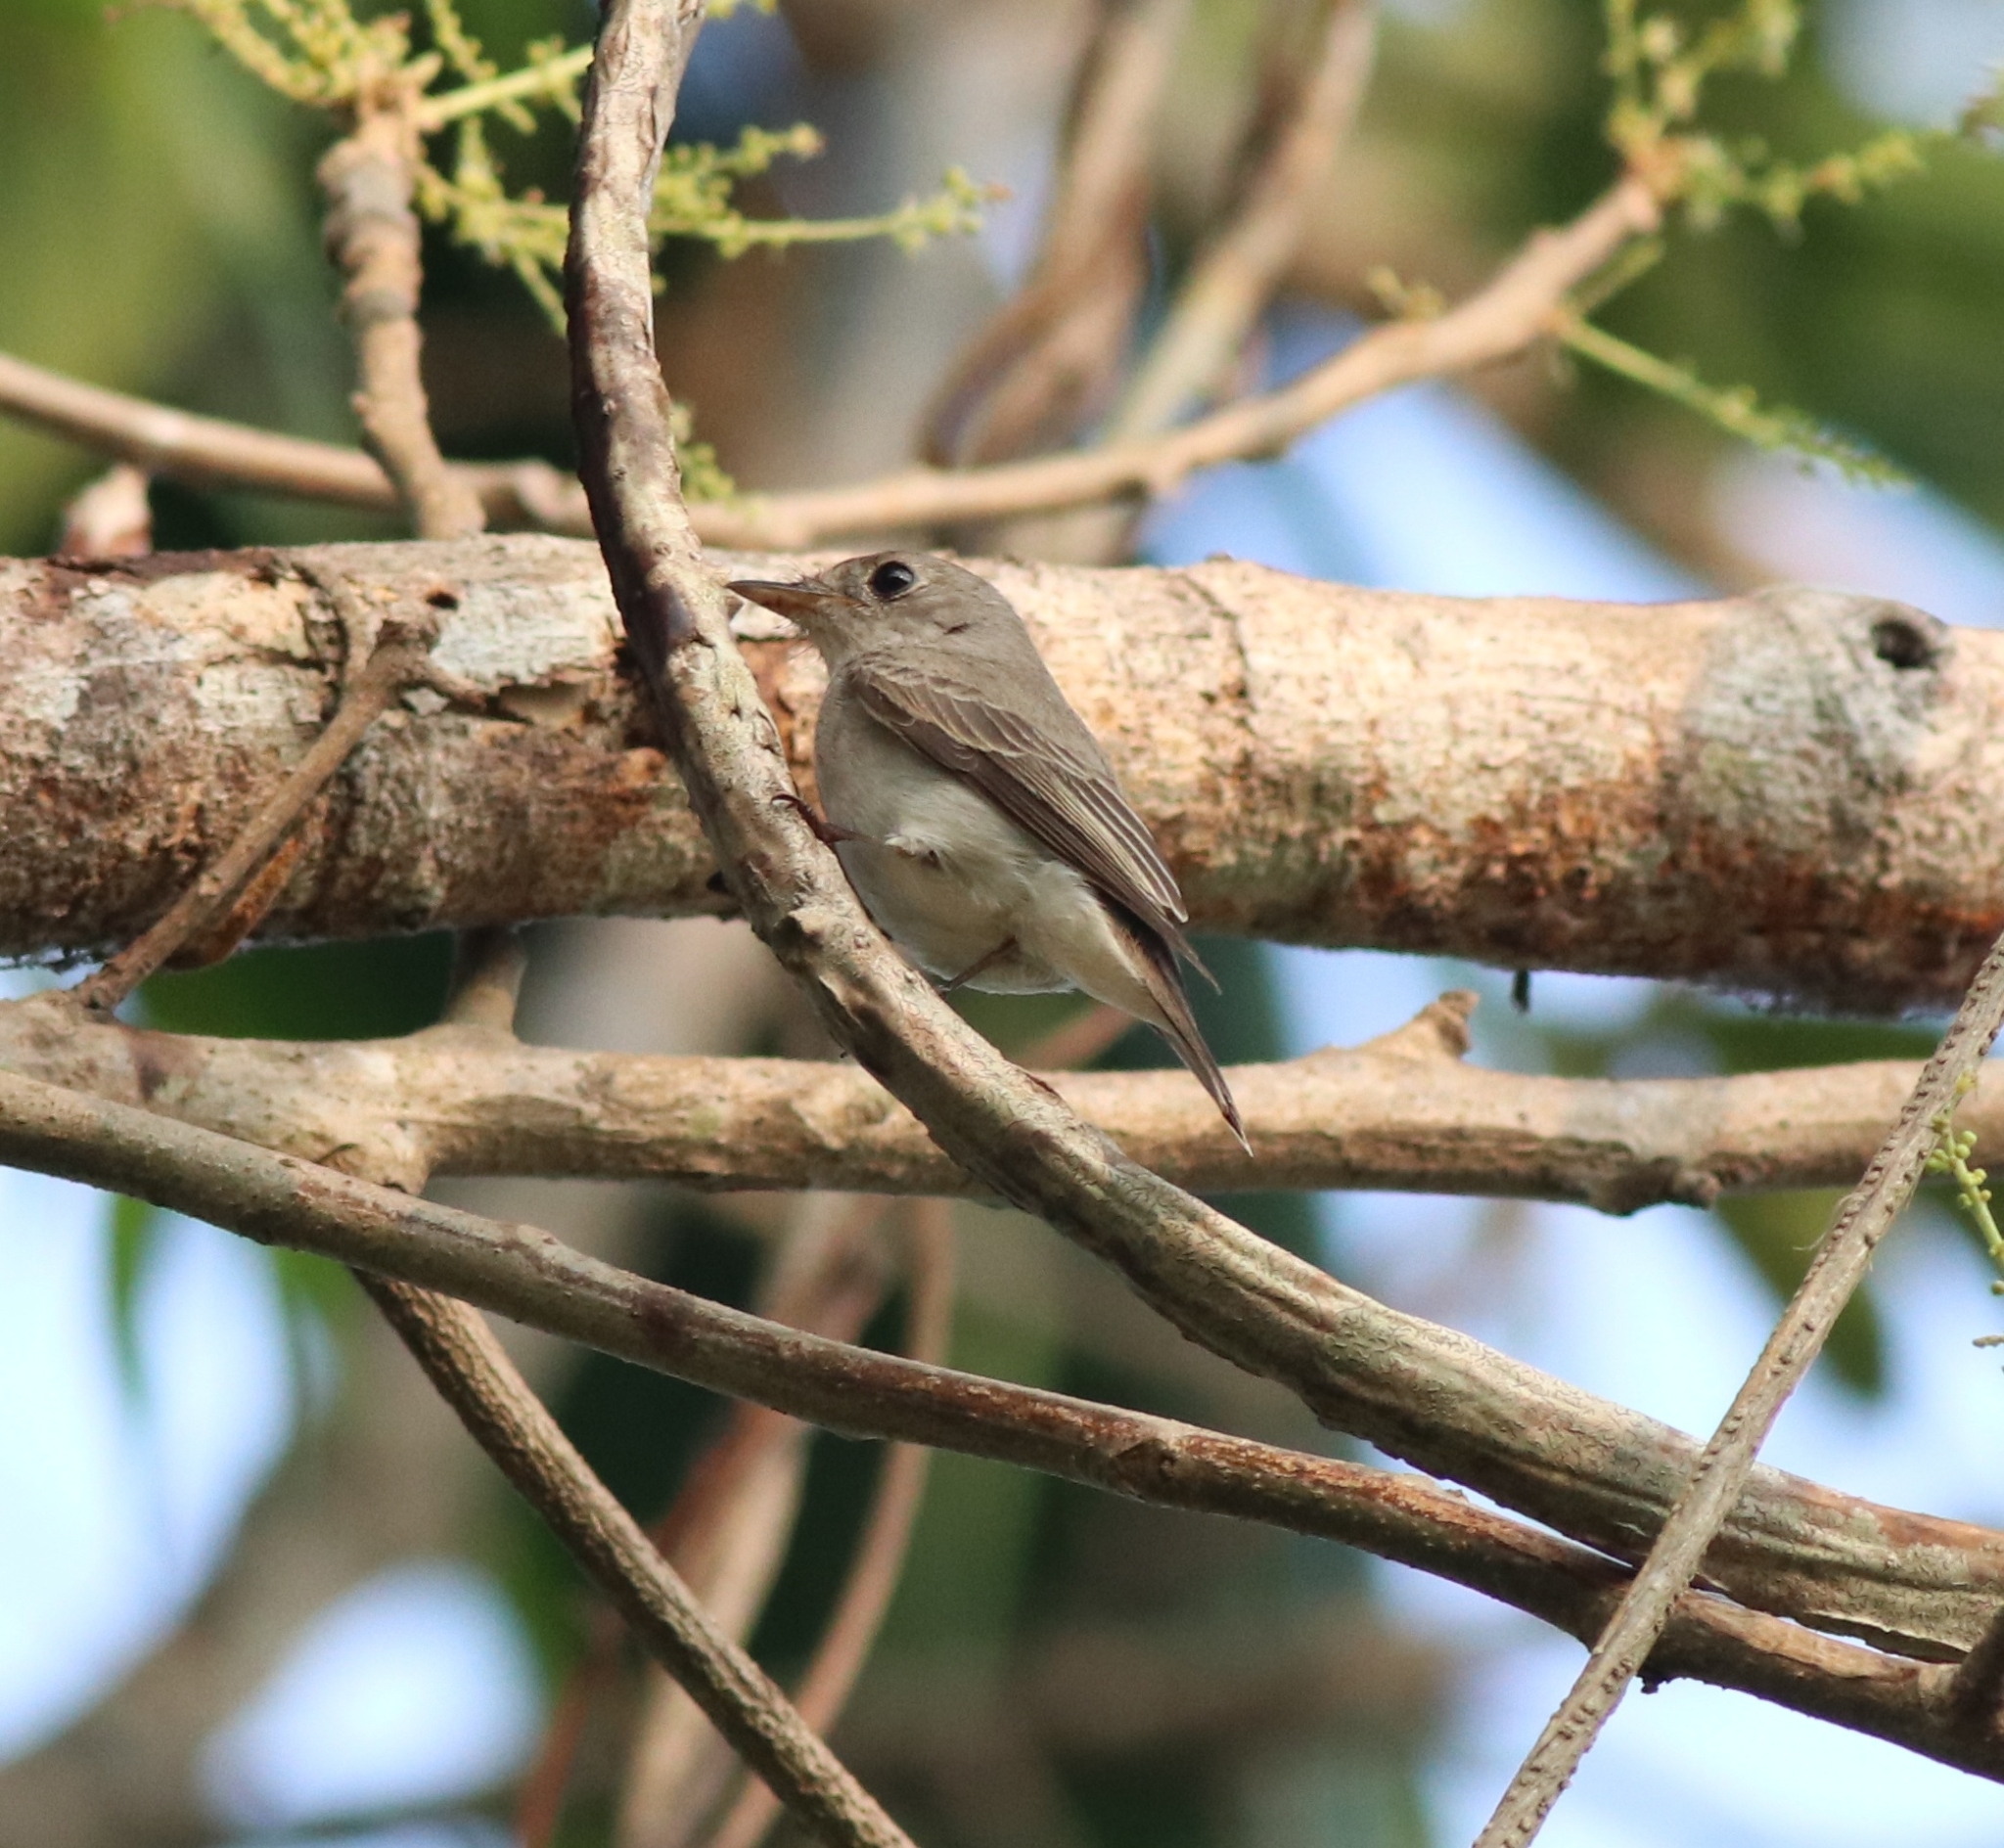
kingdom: Animalia
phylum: Chordata
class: Aves
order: Passeriformes
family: Muscicapidae
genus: Muscicapa
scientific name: Muscicapa latirostris
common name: Asian brown flycatcher
